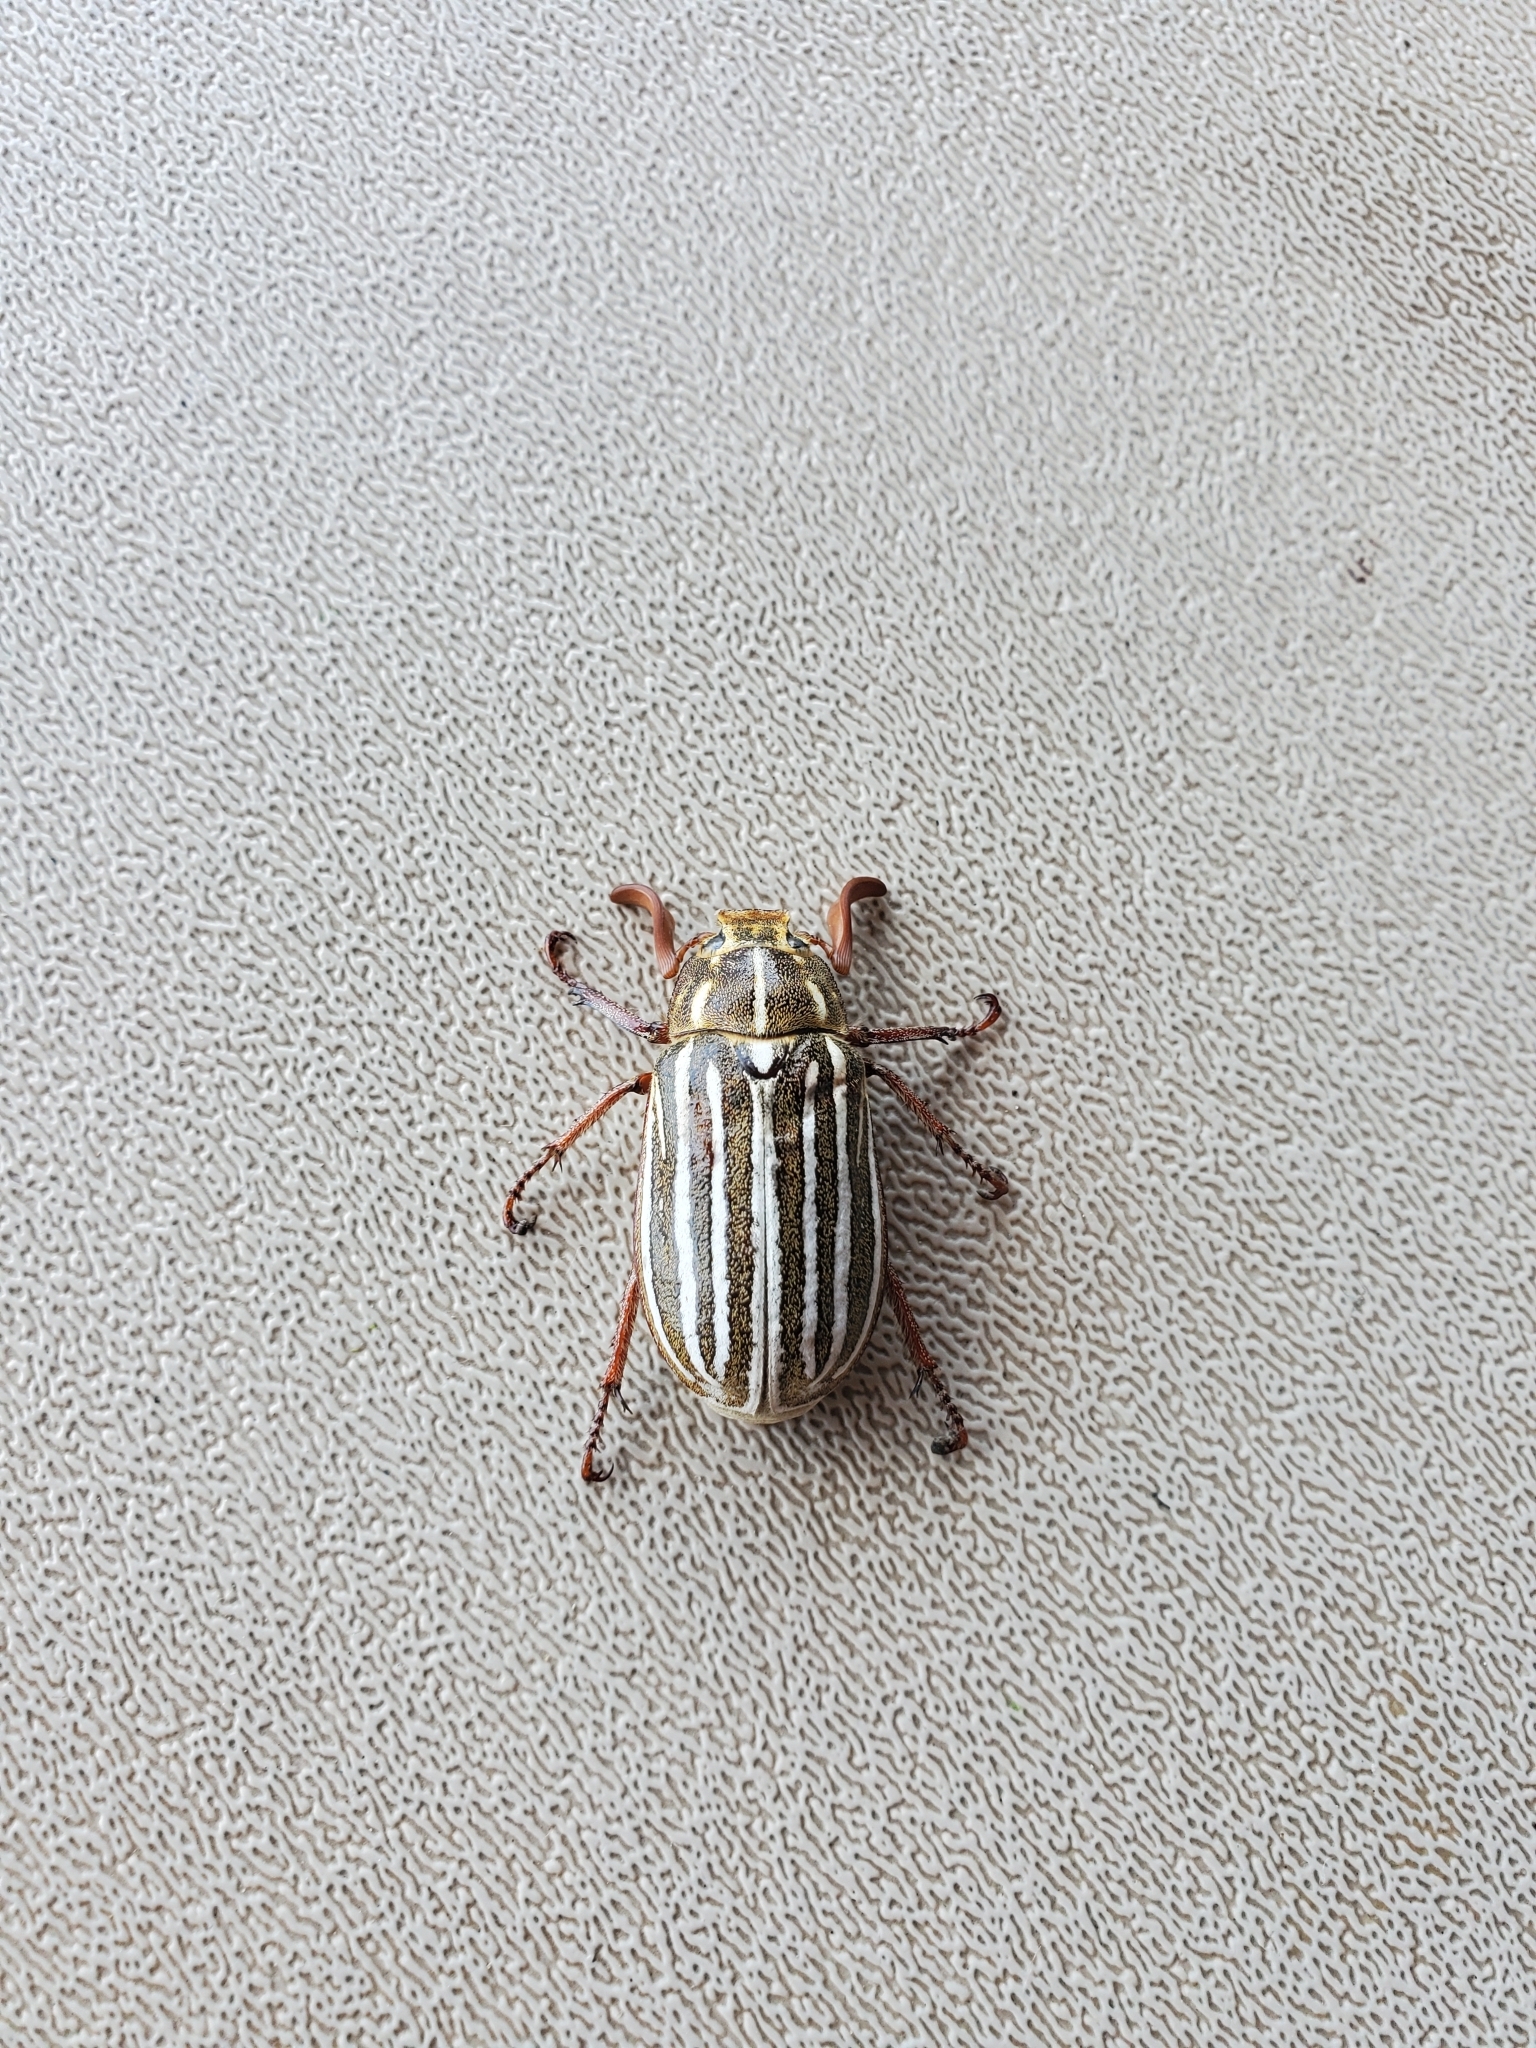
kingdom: Animalia
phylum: Arthropoda
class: Insecta
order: Coleoptera
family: Scarabaeidae
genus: Polyphylla
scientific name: Polyphylla decemlineata
